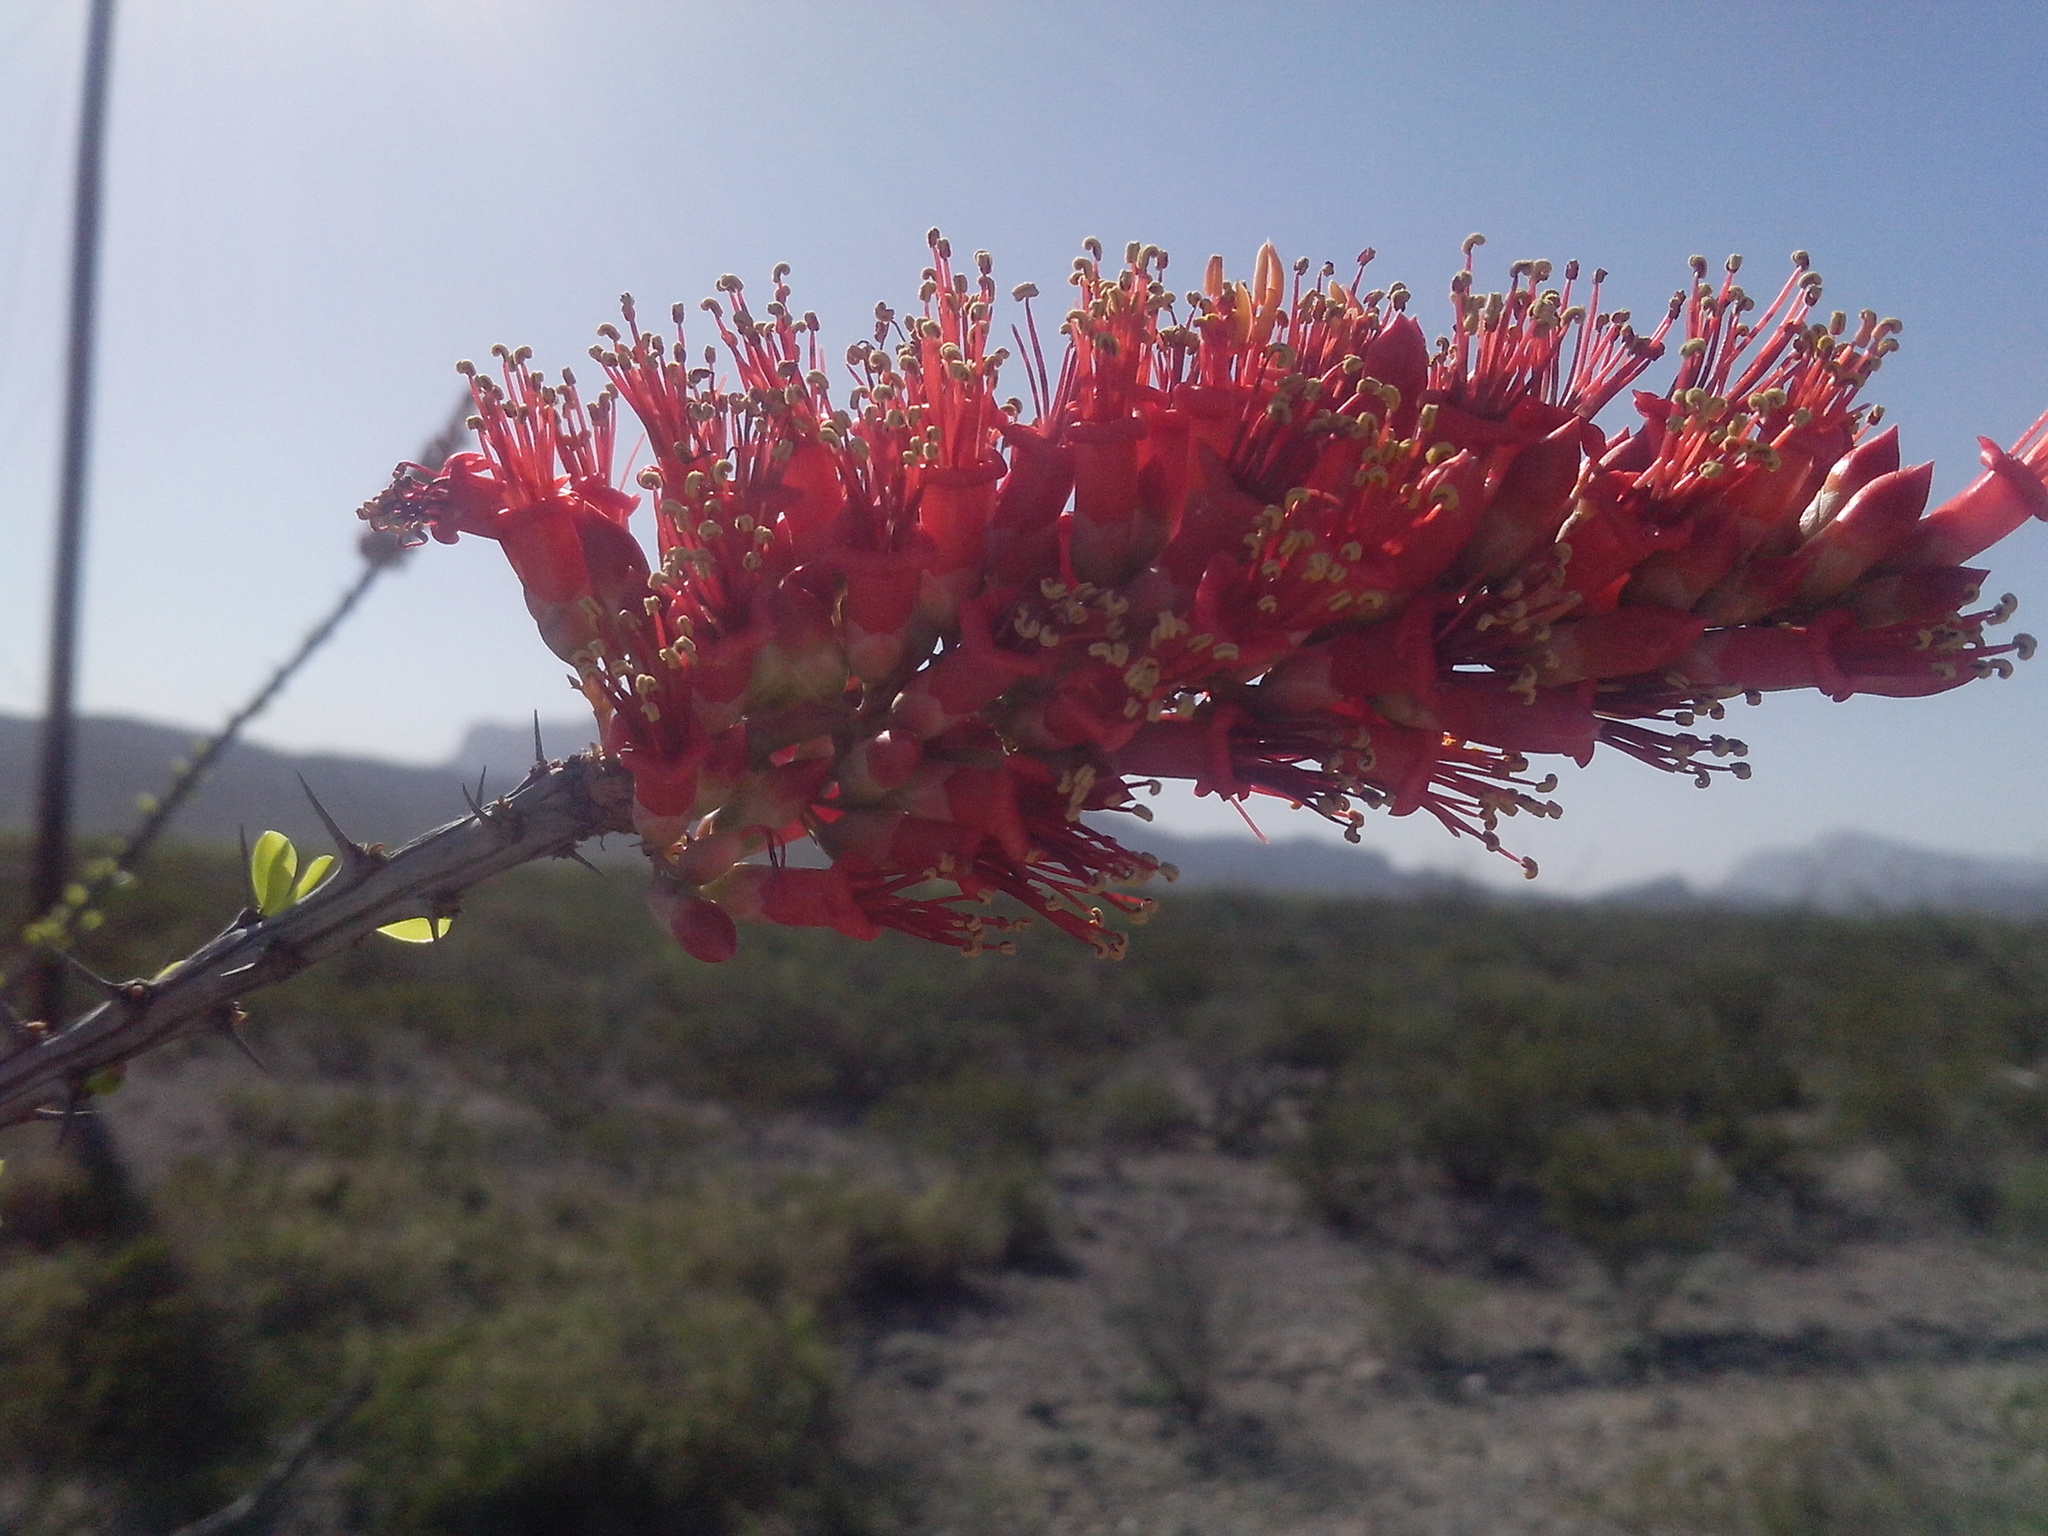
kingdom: Plantae
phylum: Tracheophyta
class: Magnoliopsida
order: Ericales
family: Fouquieriaceae
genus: Fouquieria
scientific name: Fouquieria splendens
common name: Vine-cactus
